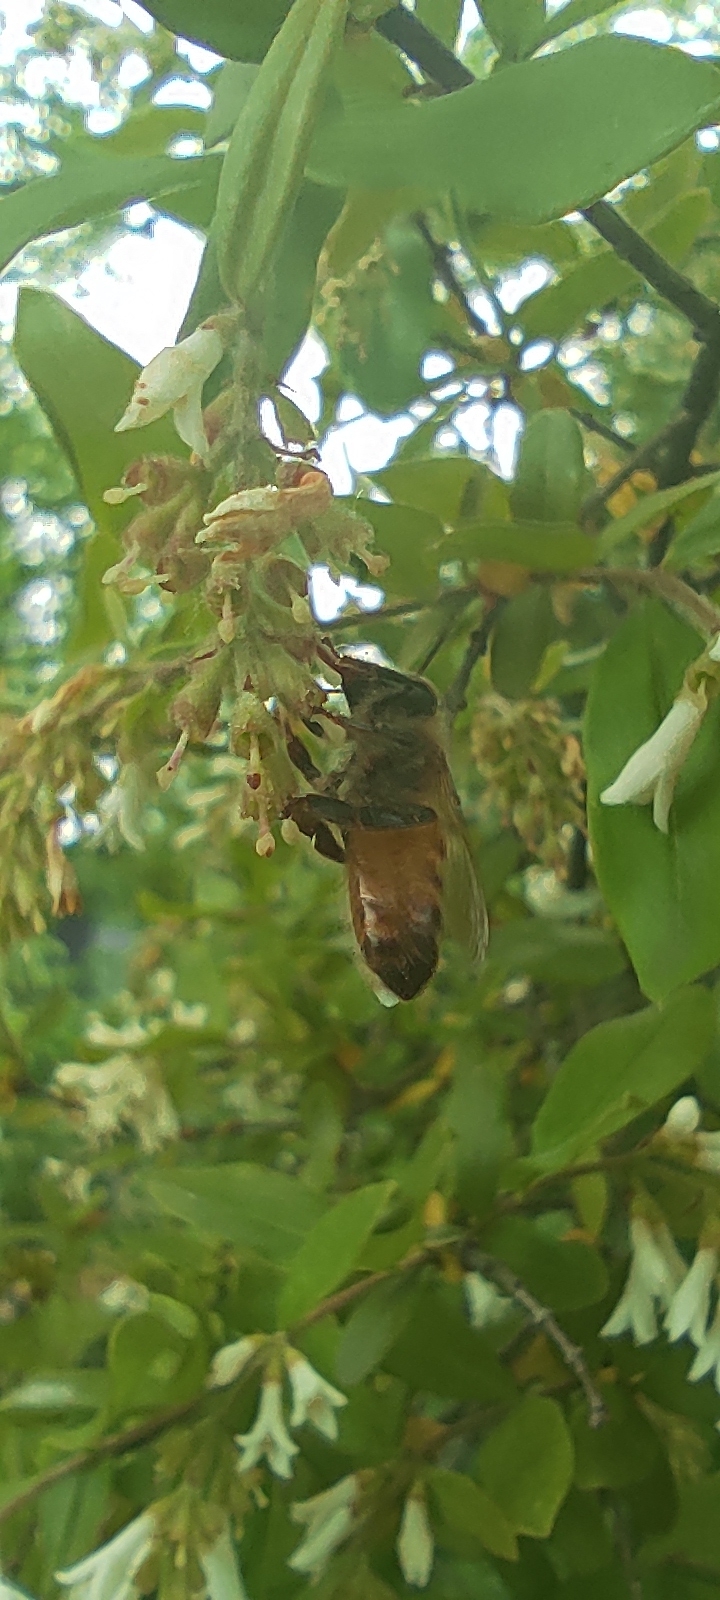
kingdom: Animalia
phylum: Arthropoda
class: Insecta
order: Hymenoptera
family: Apidae
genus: Apis
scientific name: Apis mellifera
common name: Honey bee
